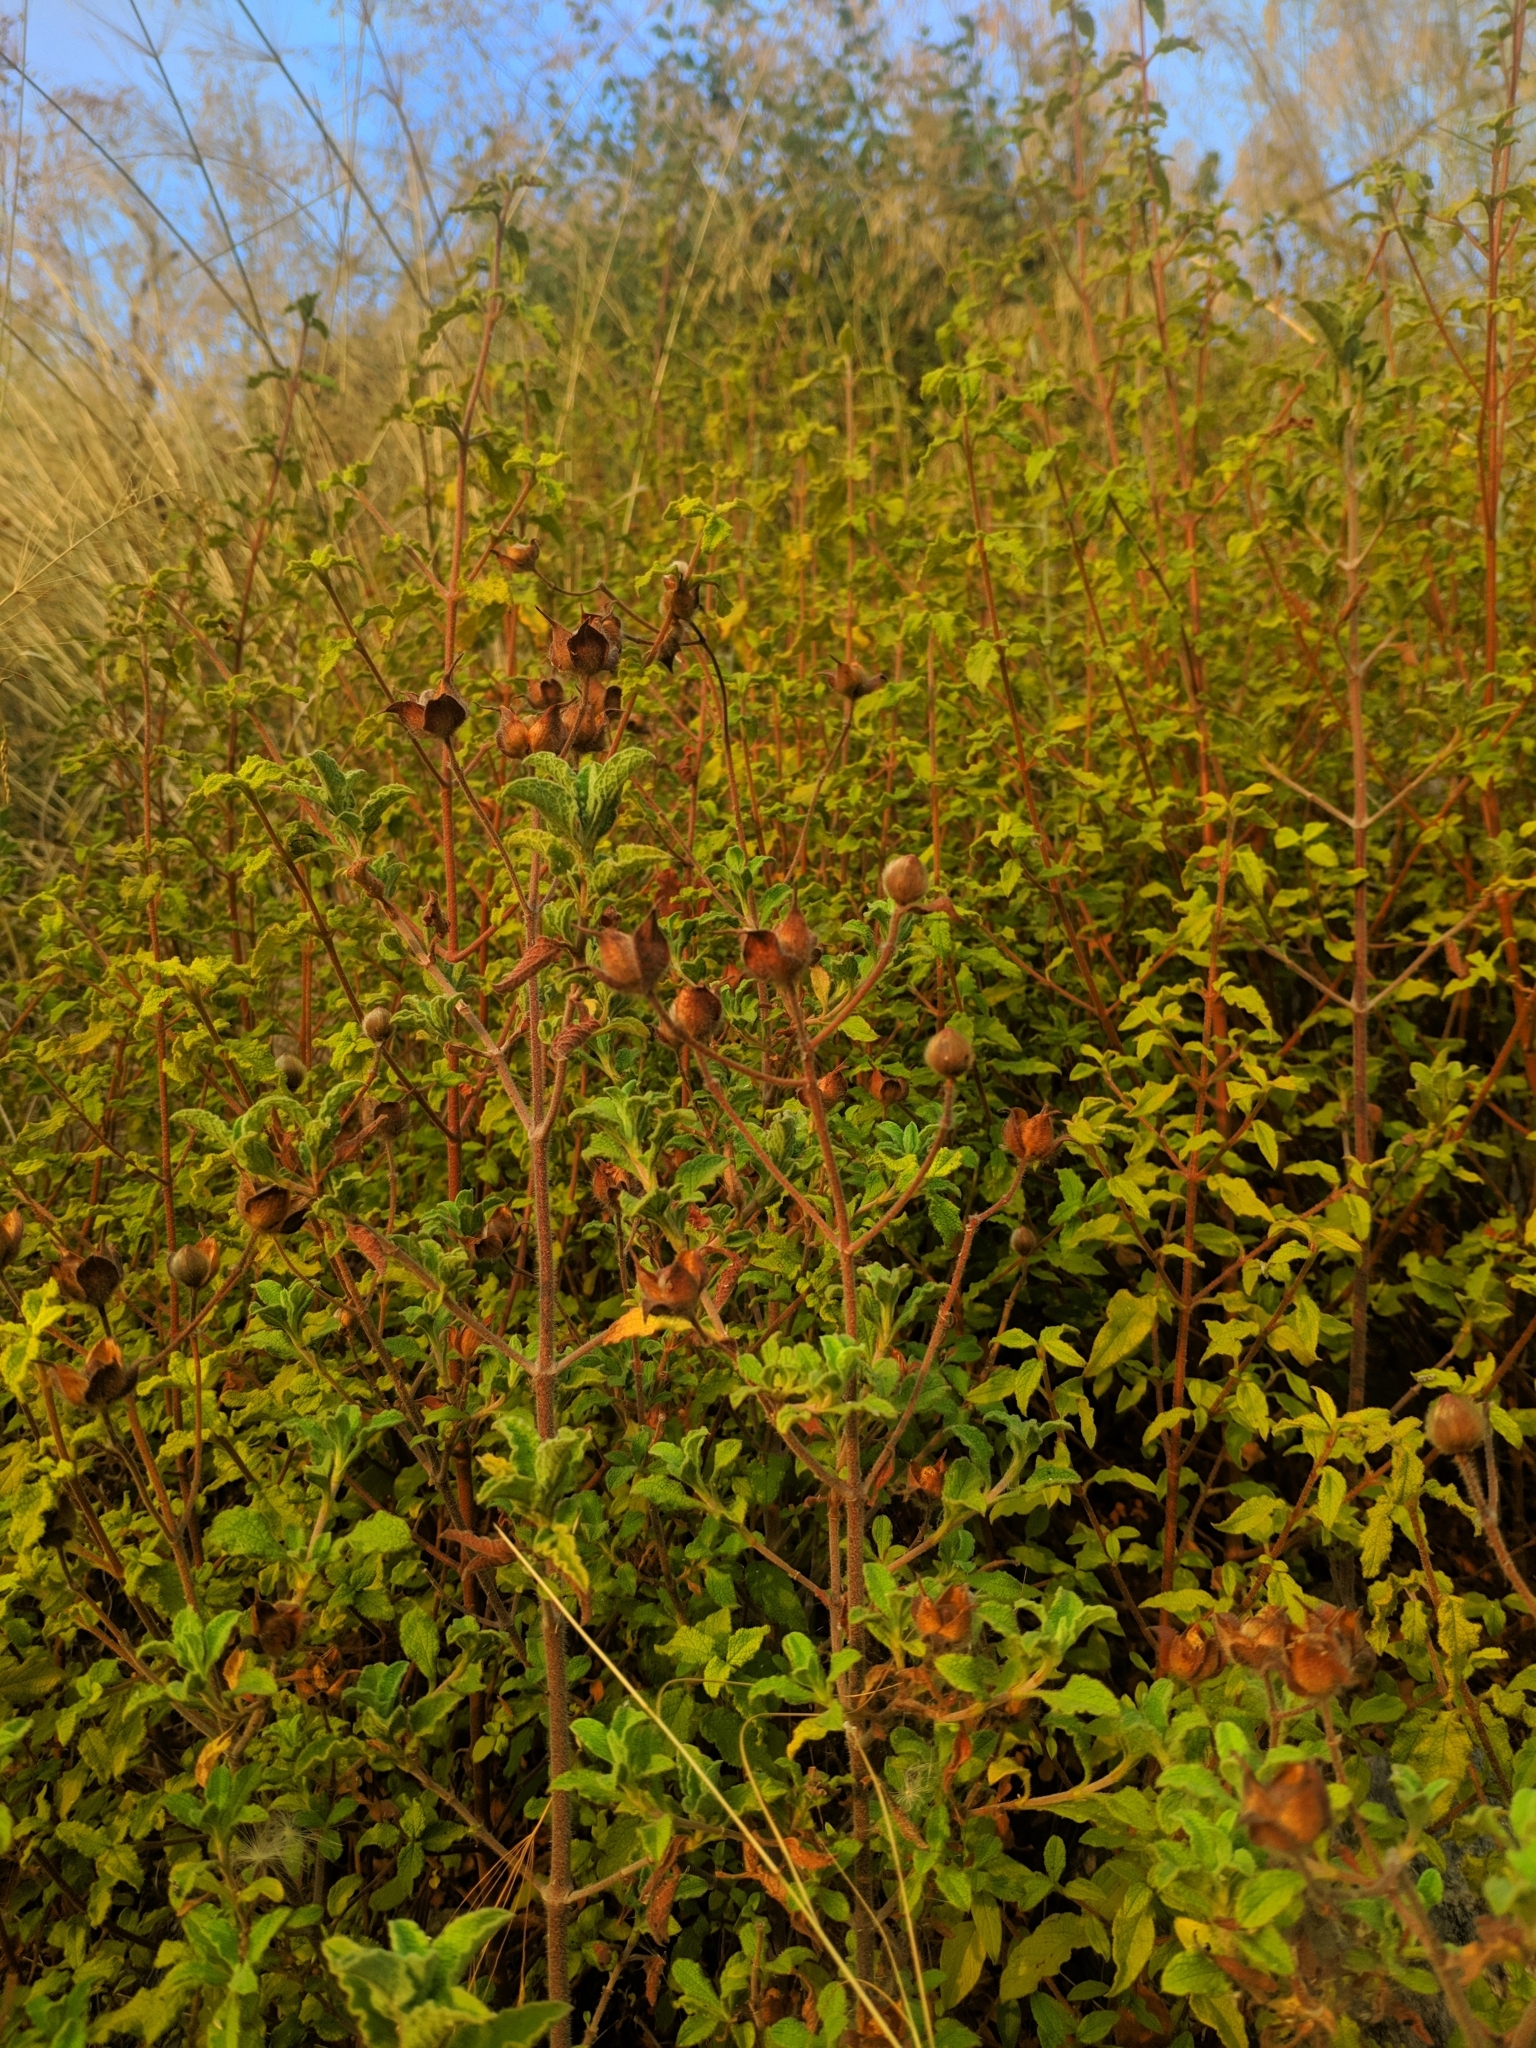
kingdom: Plantae
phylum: Tracheophyta
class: Magnoliopsida
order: Malvales
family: Cistaceae
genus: Cistus
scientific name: Cistus creticus
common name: Cretan rockrose
